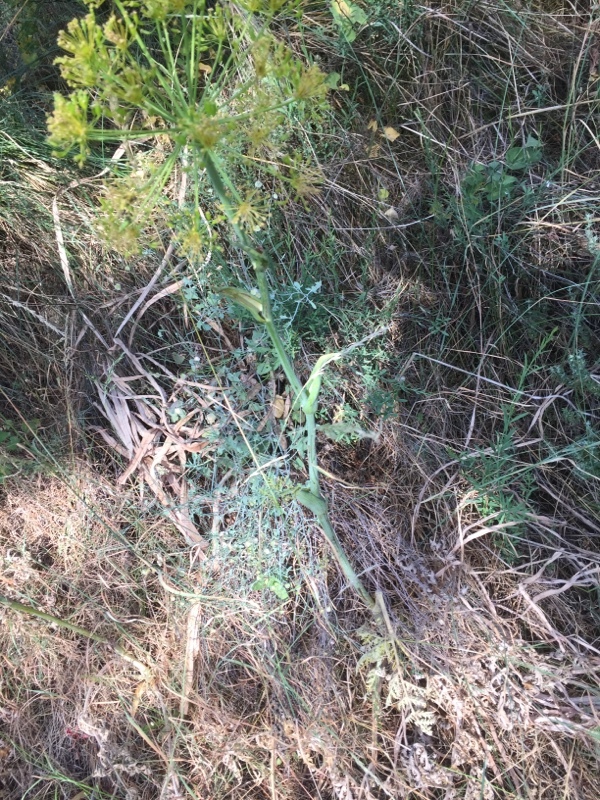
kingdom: Plantae
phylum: Tracheophyta
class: Magnoliopsida
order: Apiales
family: Apiaceae
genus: Thapsia
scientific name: Thapsia villosa
